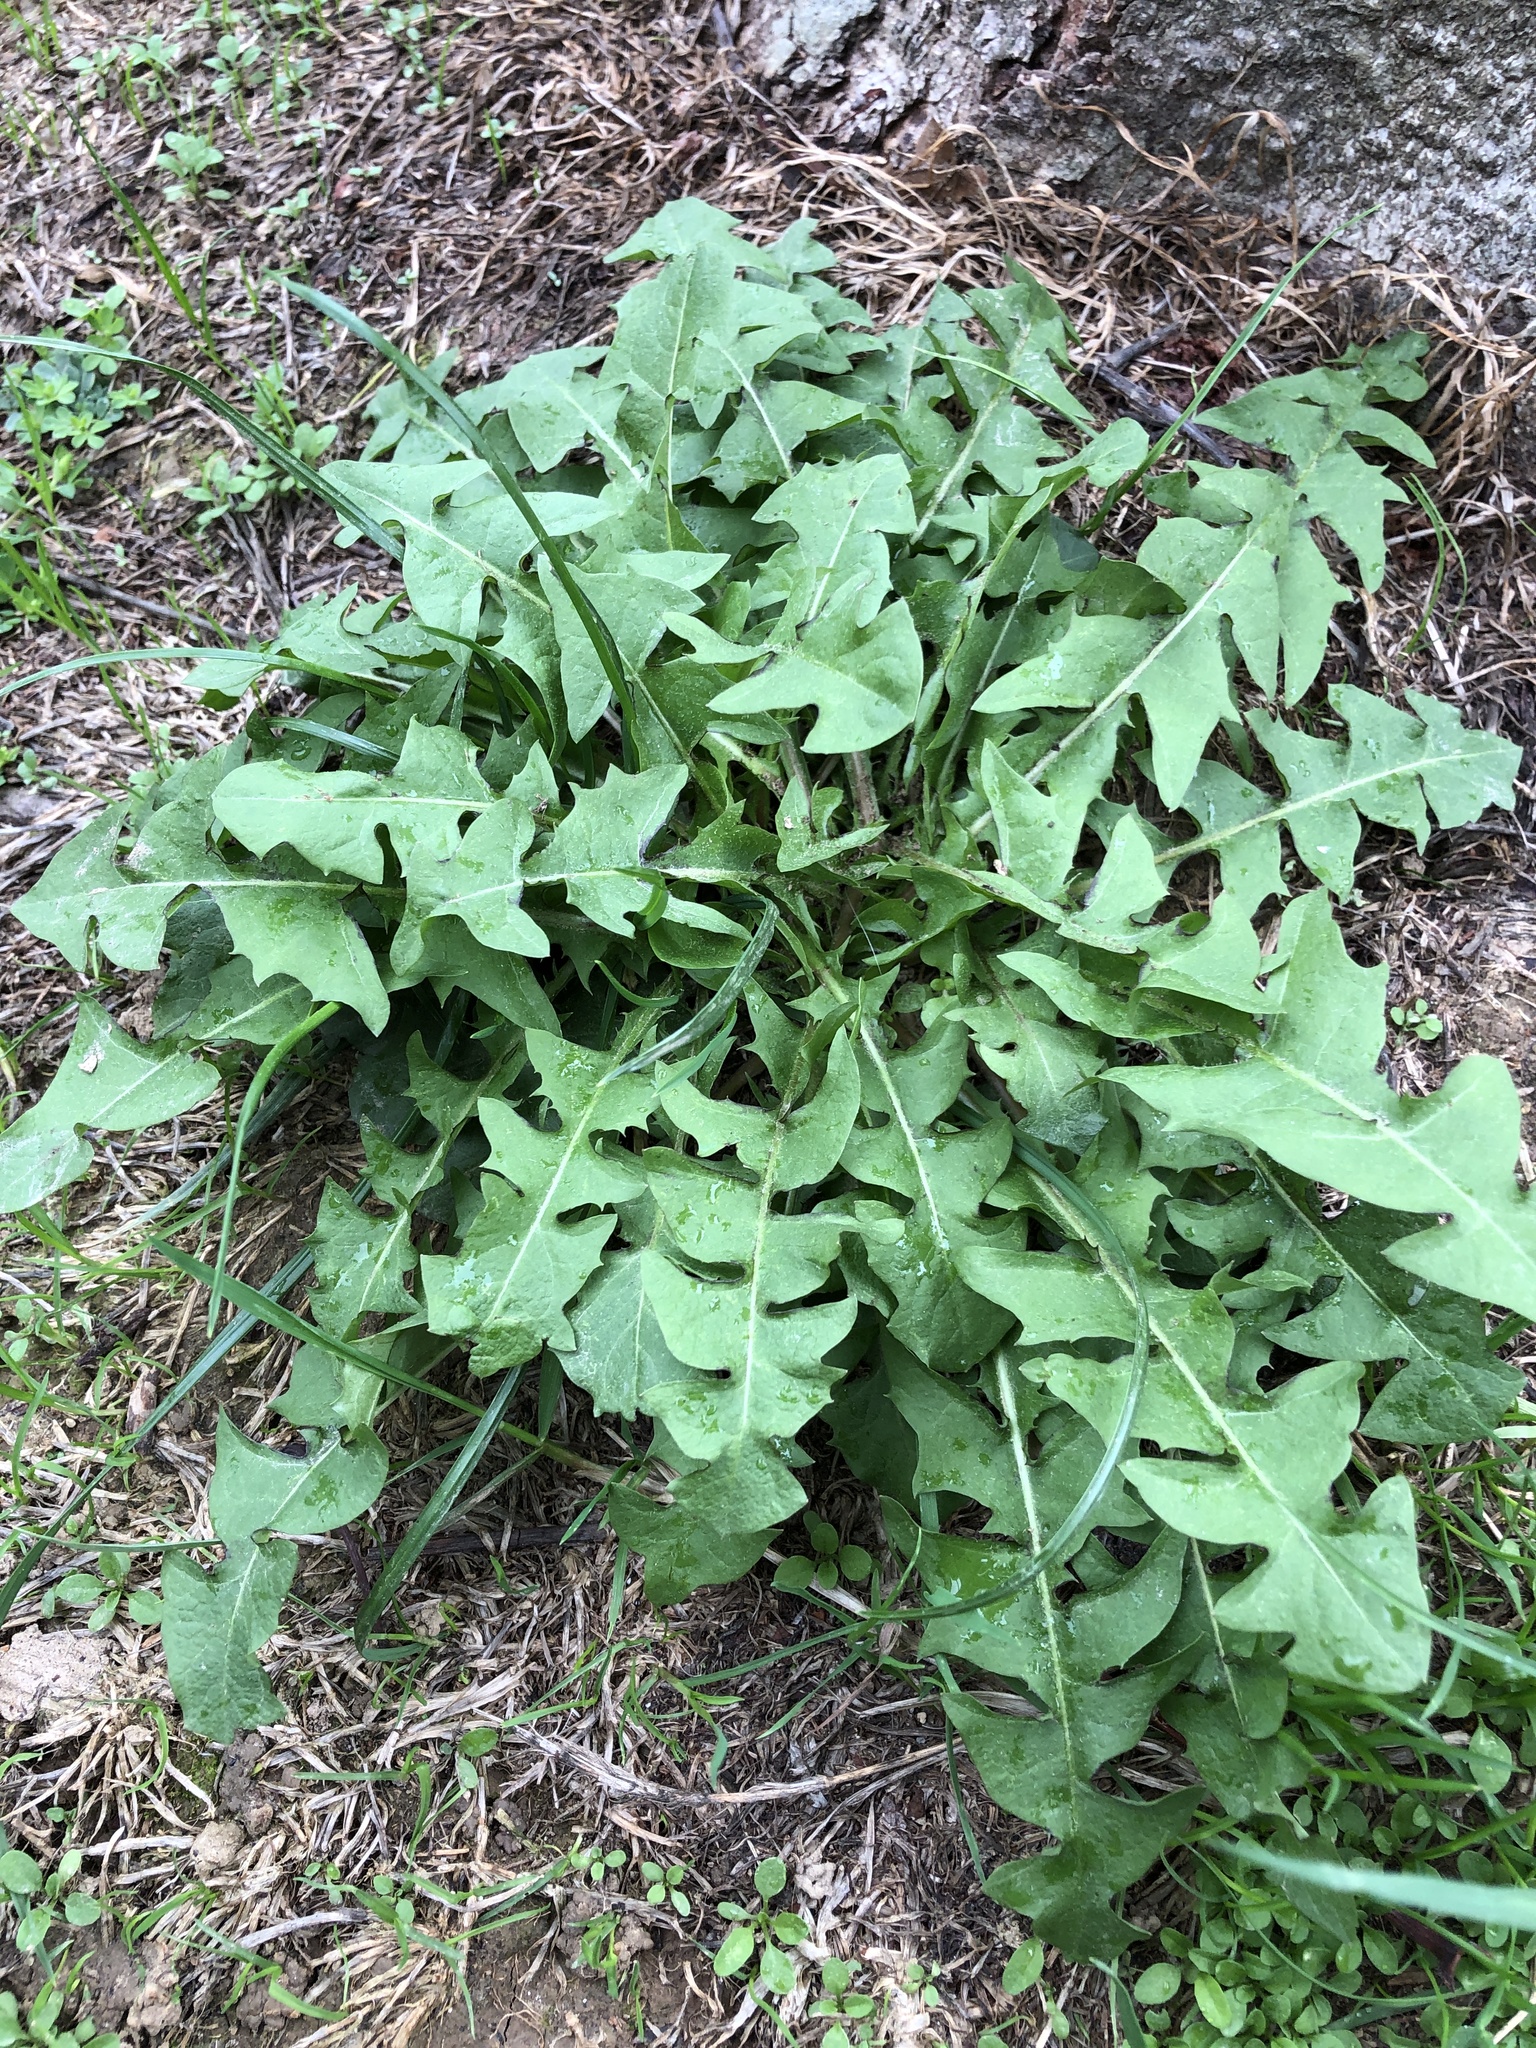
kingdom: Plantae
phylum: Tracheophyta
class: Magnoliopsida
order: Asterales
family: Asteraceae
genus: Taraxacum
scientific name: Taraxacum officinale
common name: Common dandelion
